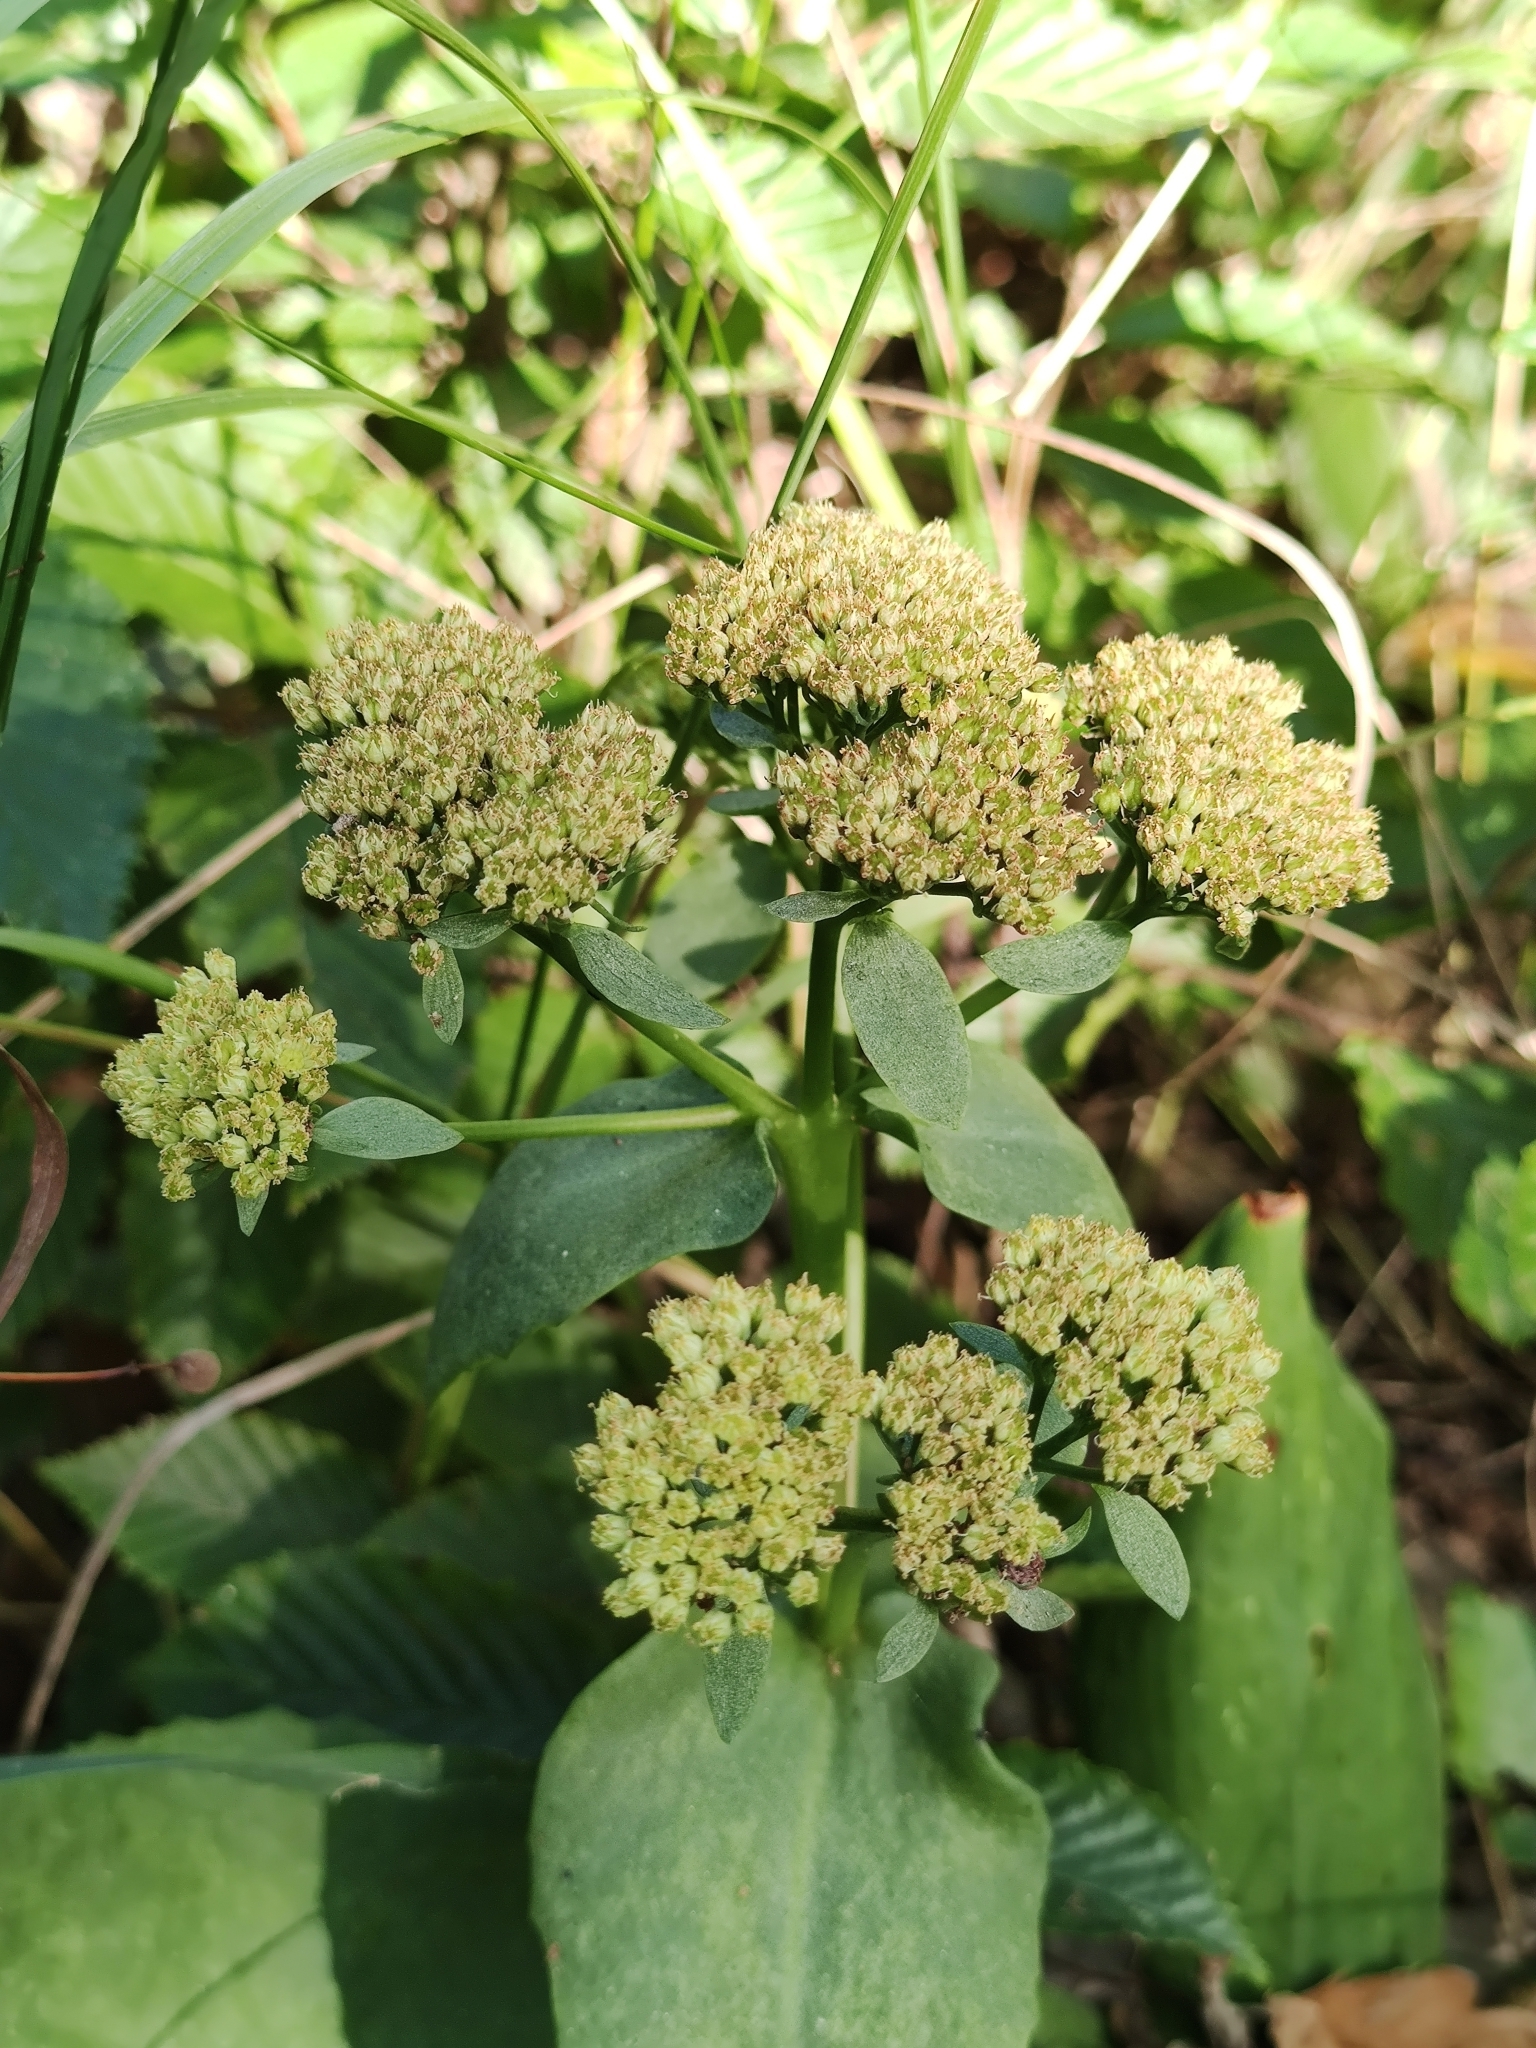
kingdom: Plantae
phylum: Tracheophyta
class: Magnoliopsida
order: Saxifragales
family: Crassulaceae
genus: Hylotelephium
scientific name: Hylotelephium maximum
